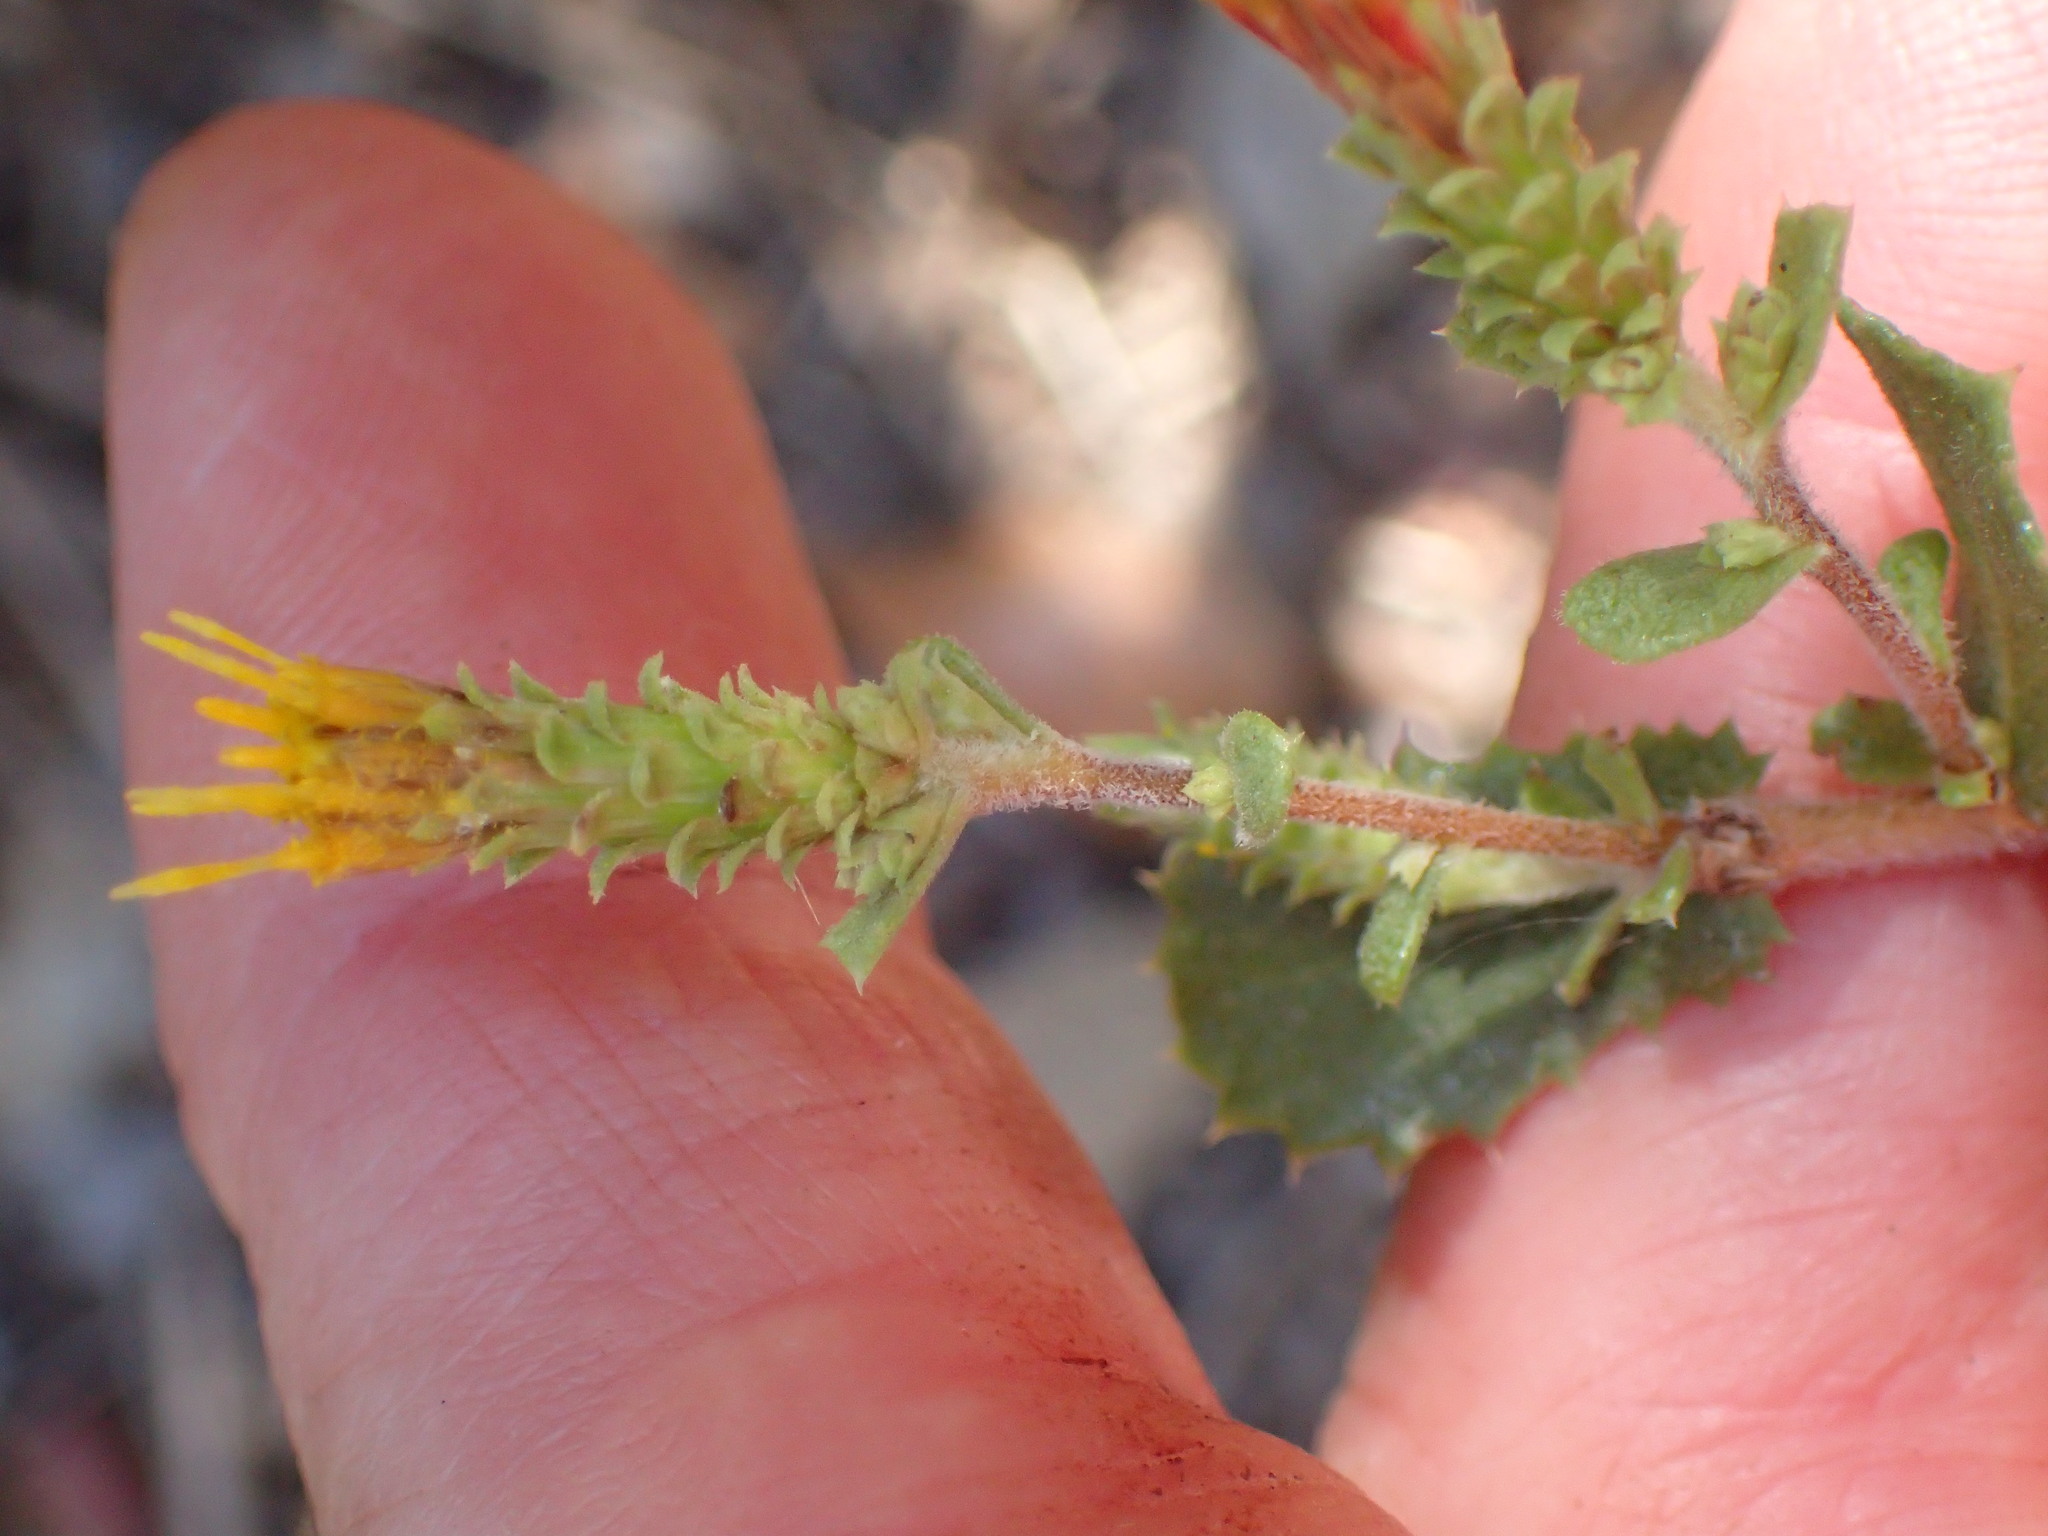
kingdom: Plantae
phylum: Tracheophyta
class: Magnoliopsida
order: Asterales
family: Asteraceae
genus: Hazardia
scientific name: Hazardia squarrosa
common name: Saw-tooth goldenbush
